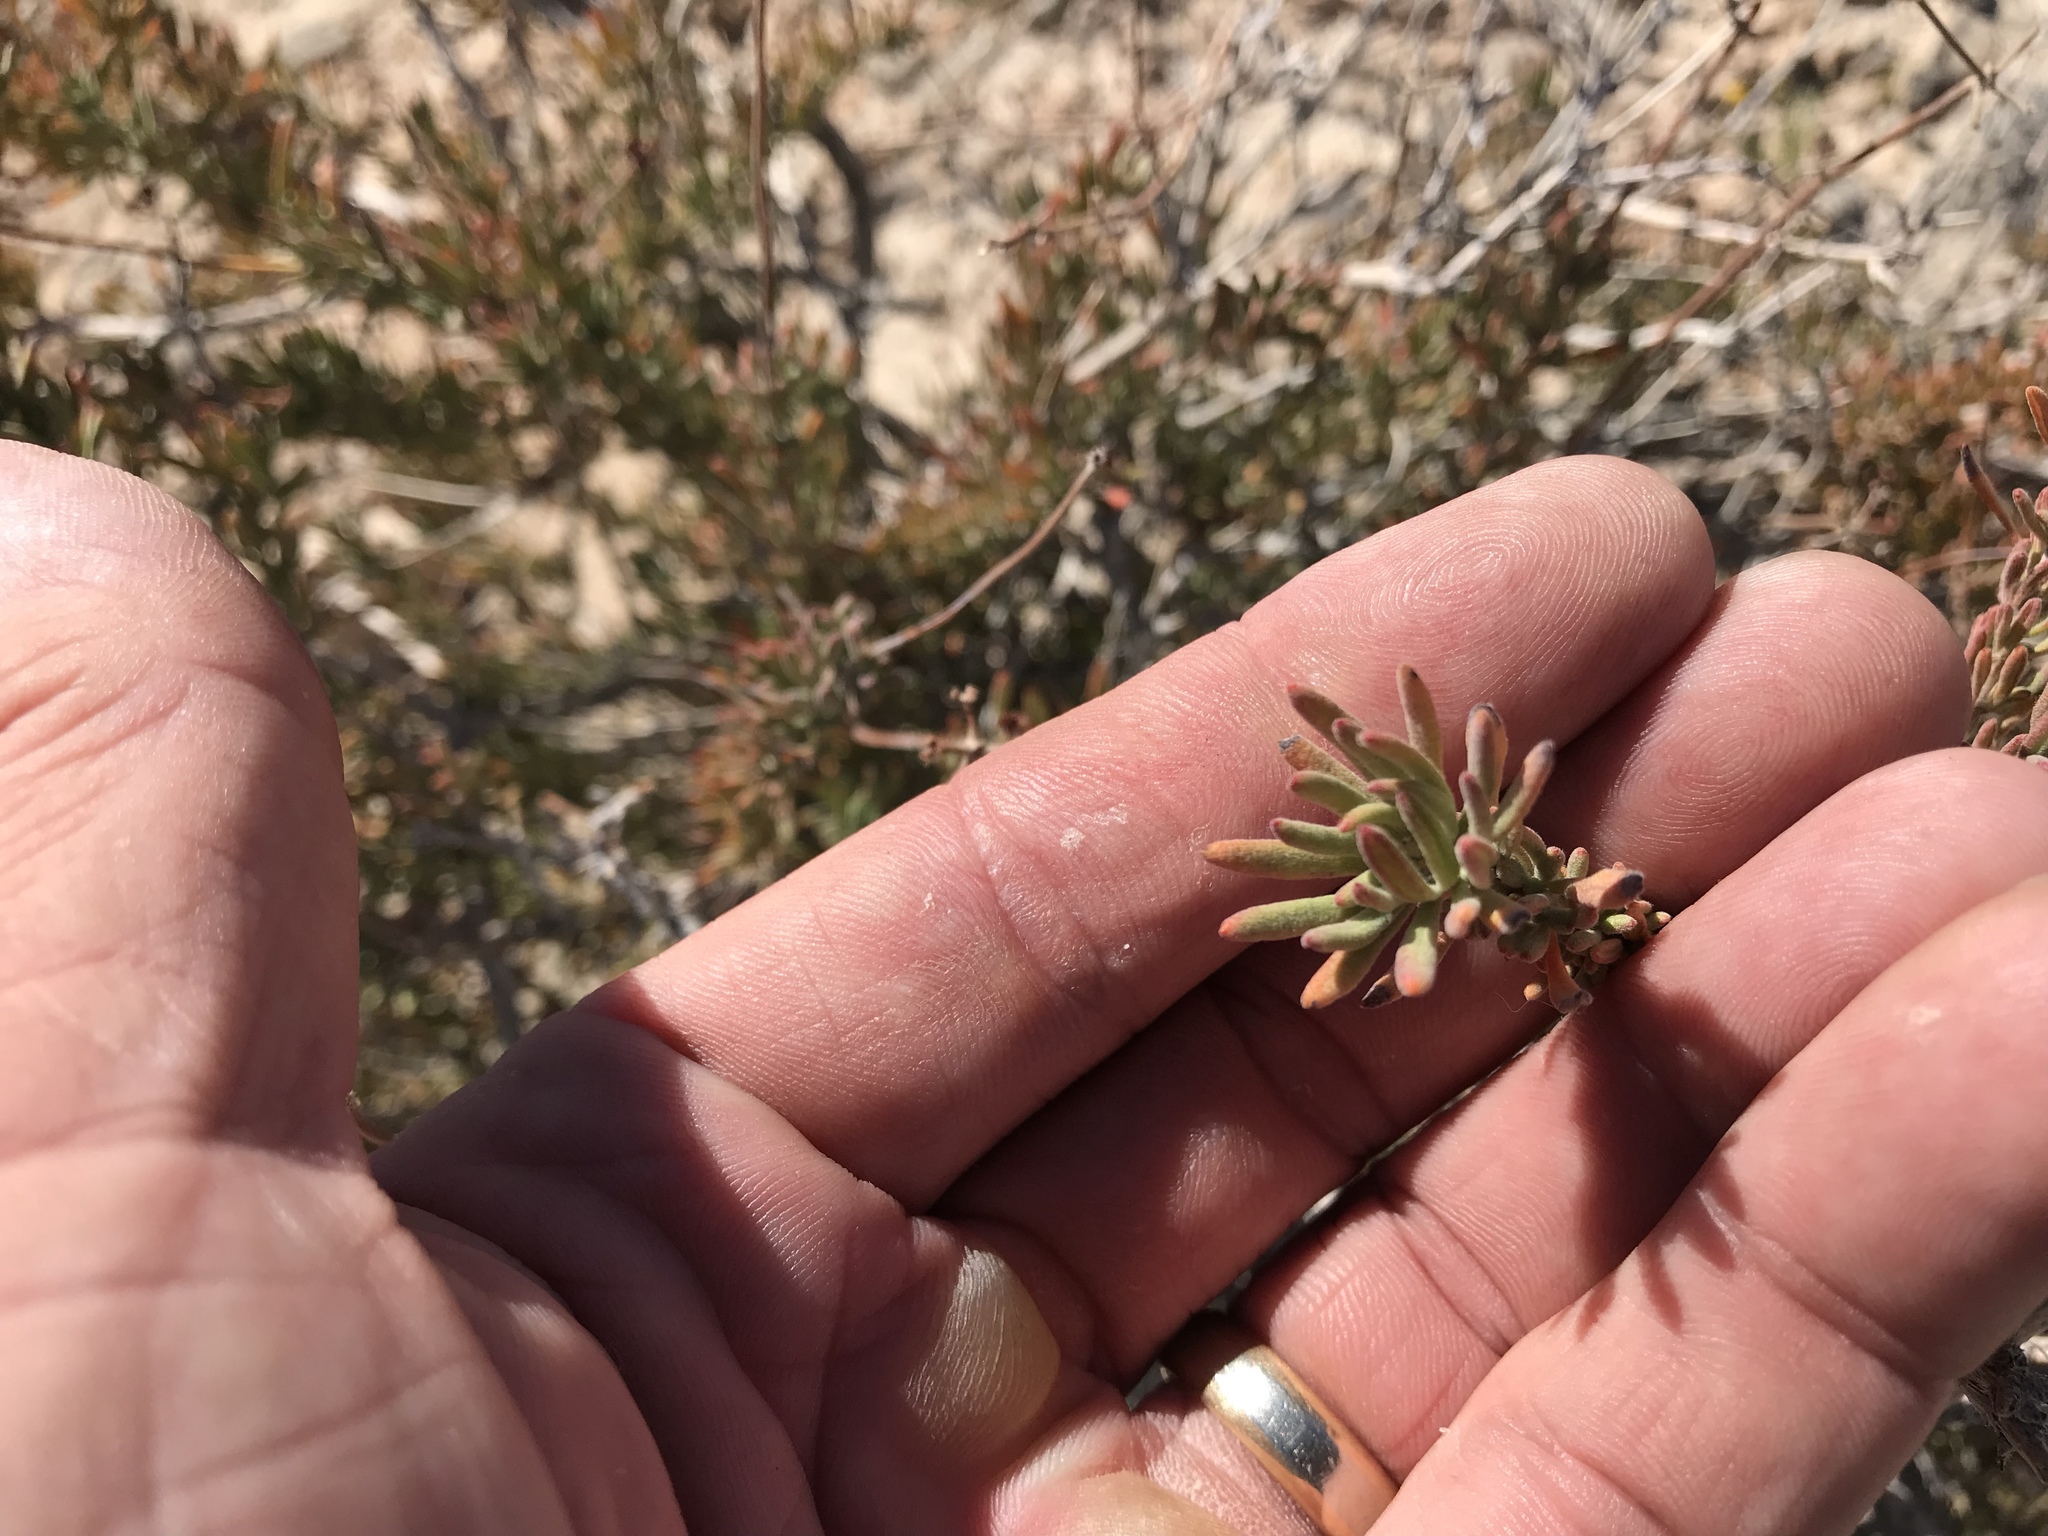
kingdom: Plantae
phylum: Tracheophyta
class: Magnoliopsida
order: Caryophyllales
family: Polygonaceae
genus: Eriogonum
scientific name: Eriogonum fasciculatum
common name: California wild buckwheat
